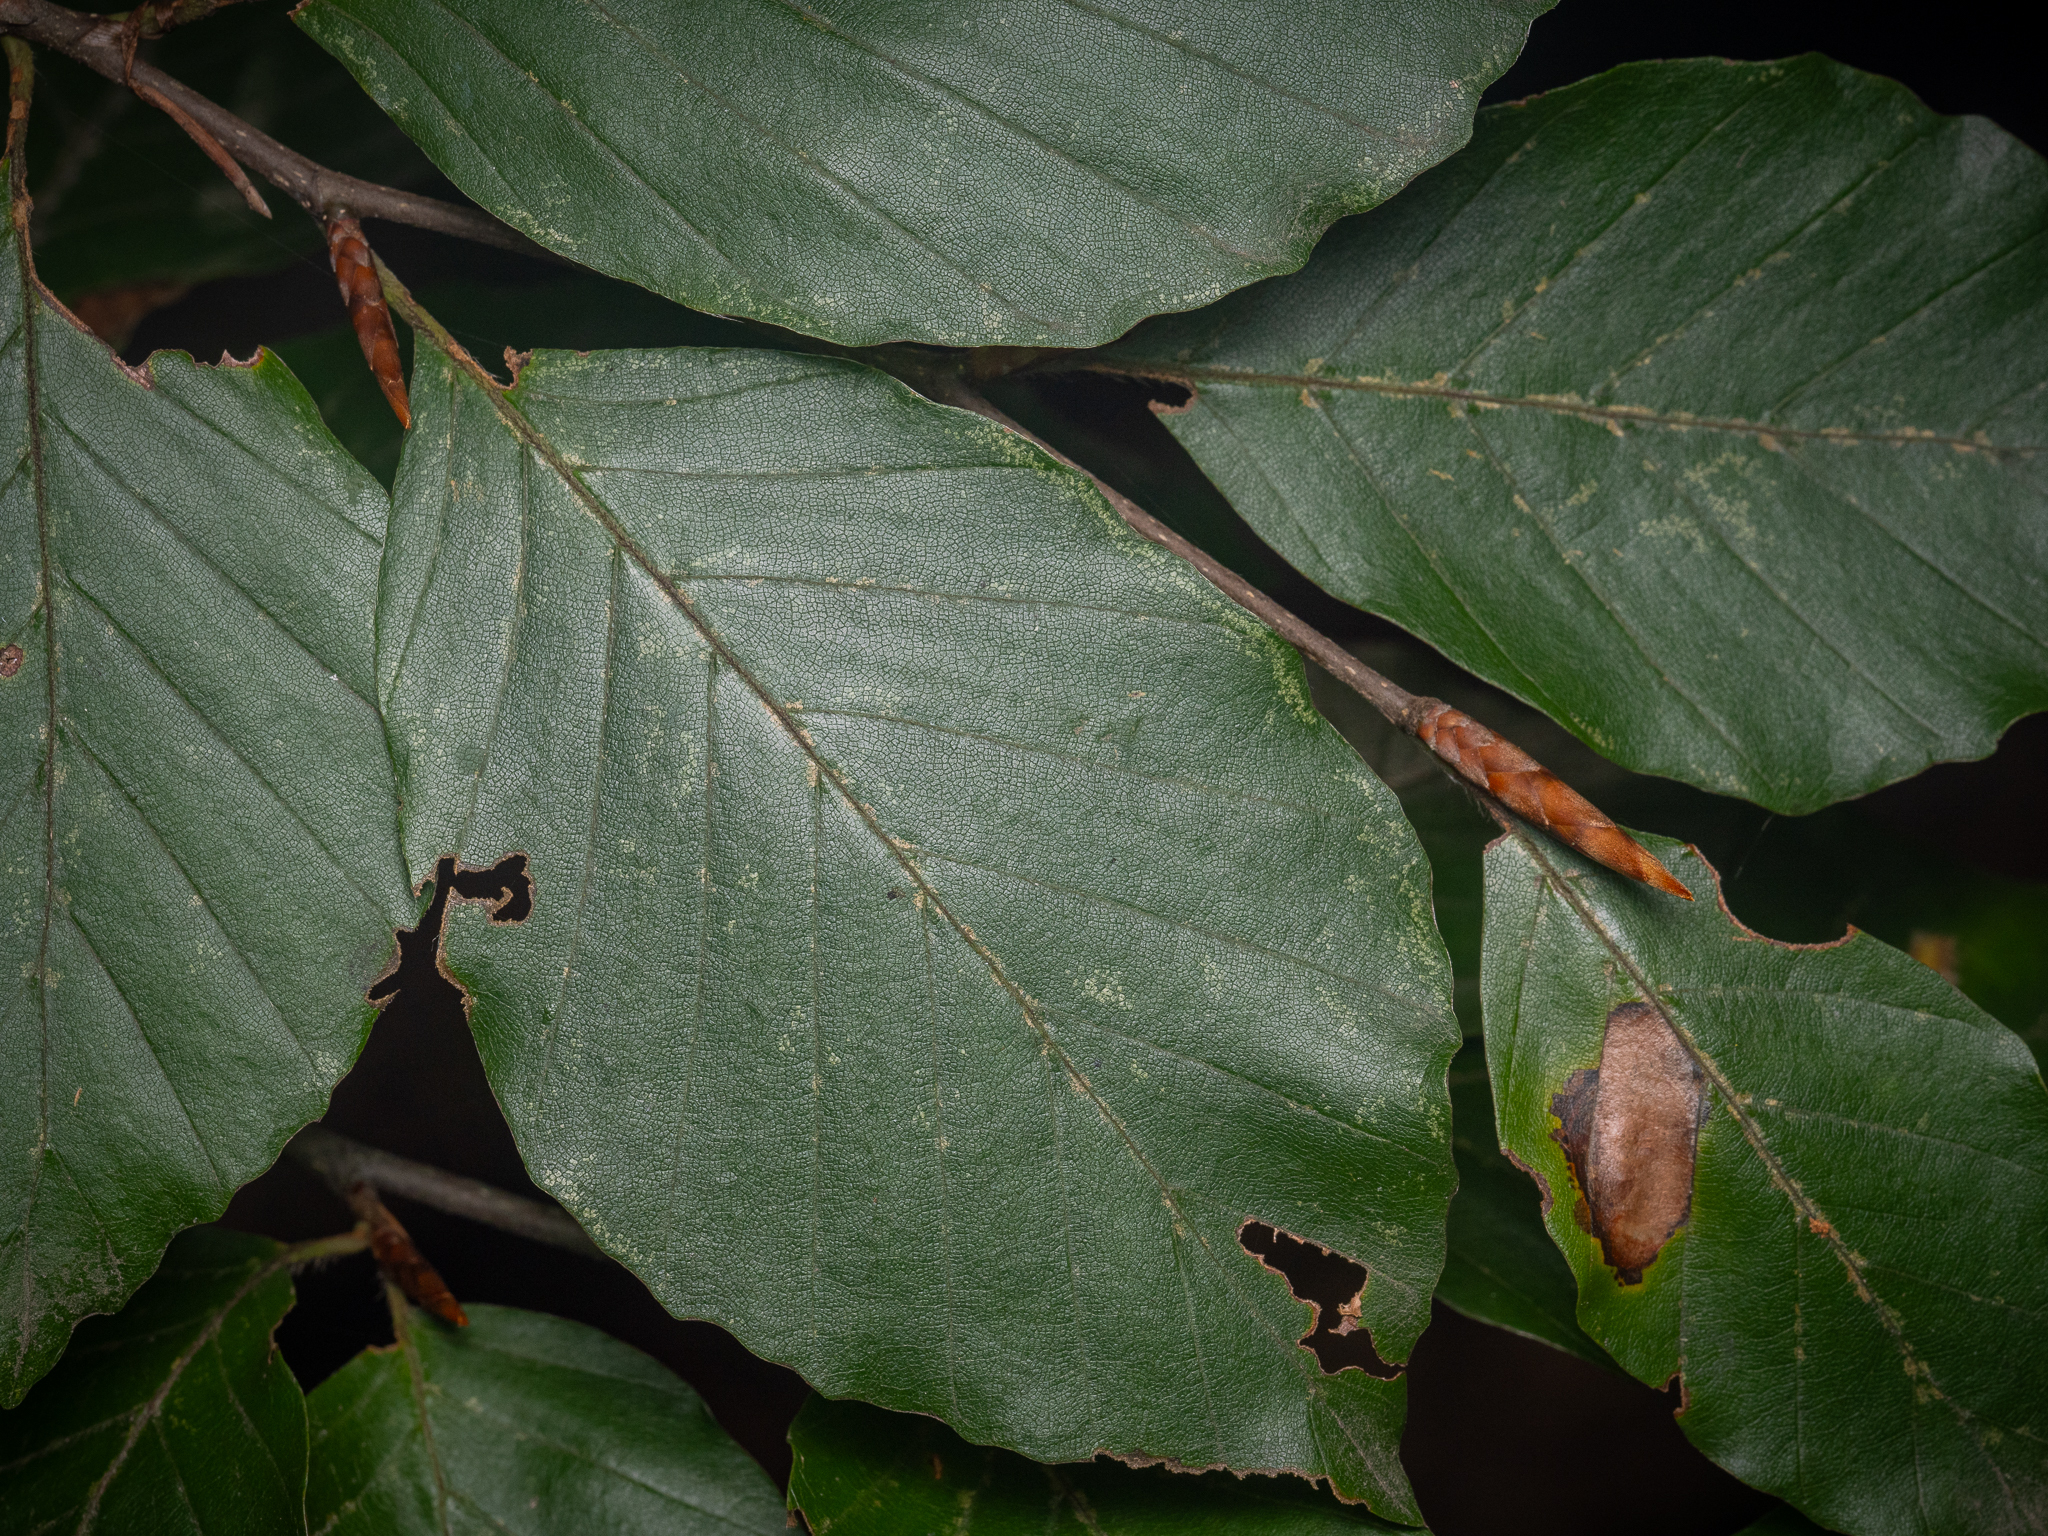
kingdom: Plantae
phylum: Tracheophyta
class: Magnoliopsida
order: Fagales
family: Fagaceae
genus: Fagus
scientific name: Fagus sylvatica
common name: Beech
